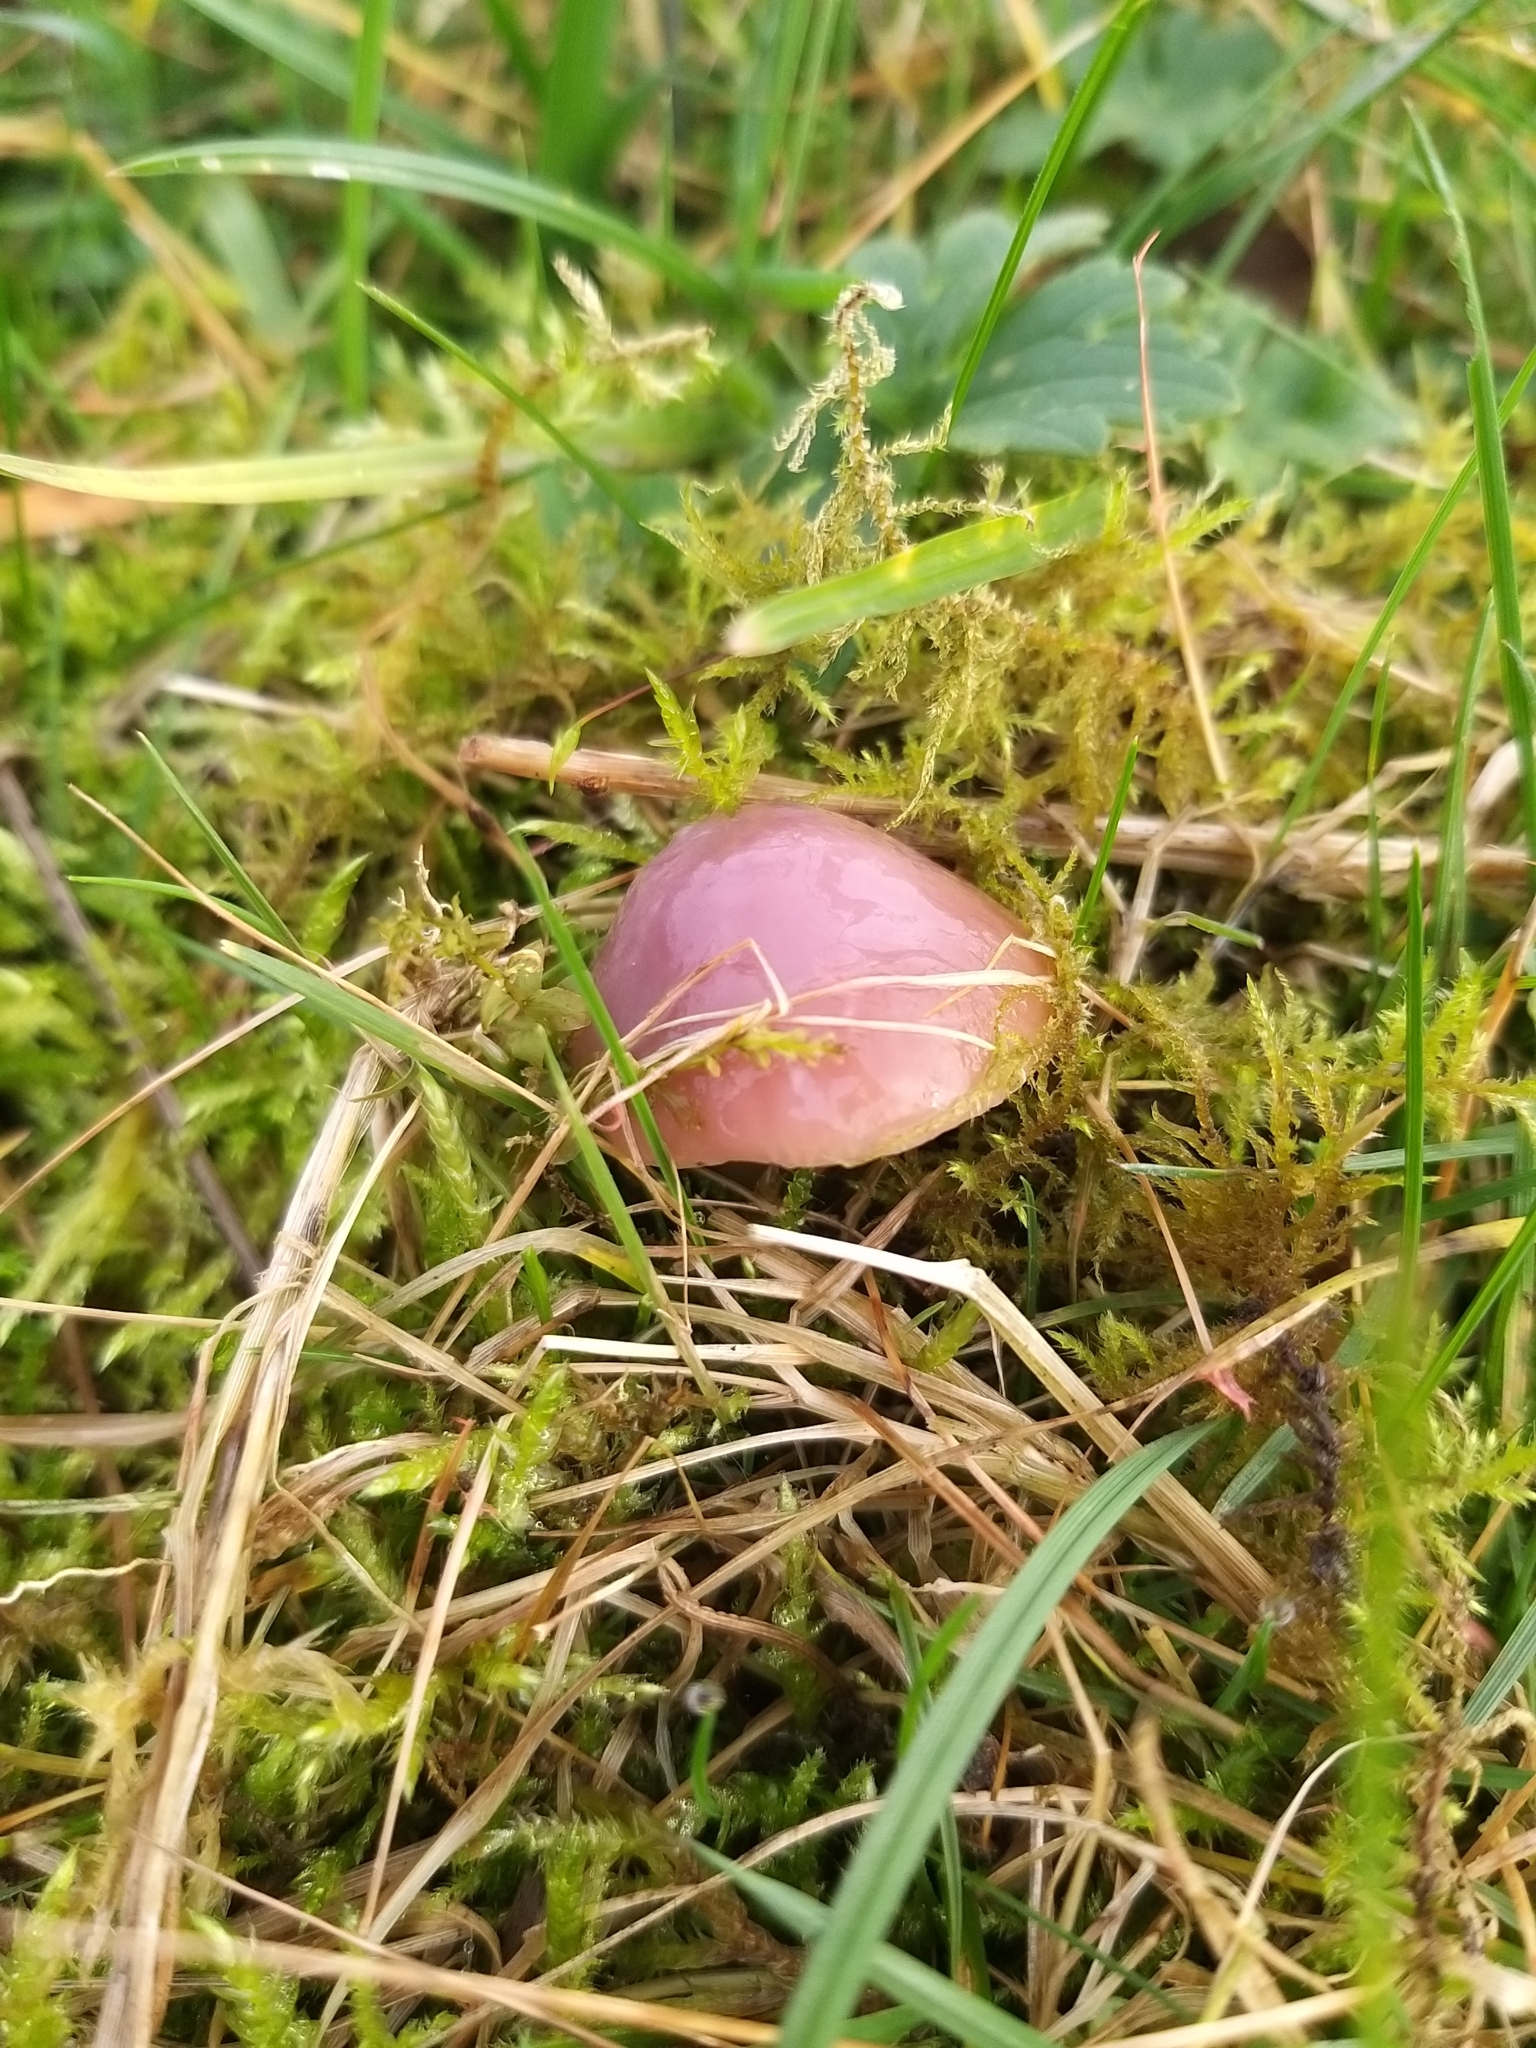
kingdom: Fungi
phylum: Basidiomycota
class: Agaricomycetes
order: Agaricales
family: Hygrophoraceae
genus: Gliophorus
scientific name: Gliophorus reginae
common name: Jubilee waxcap
